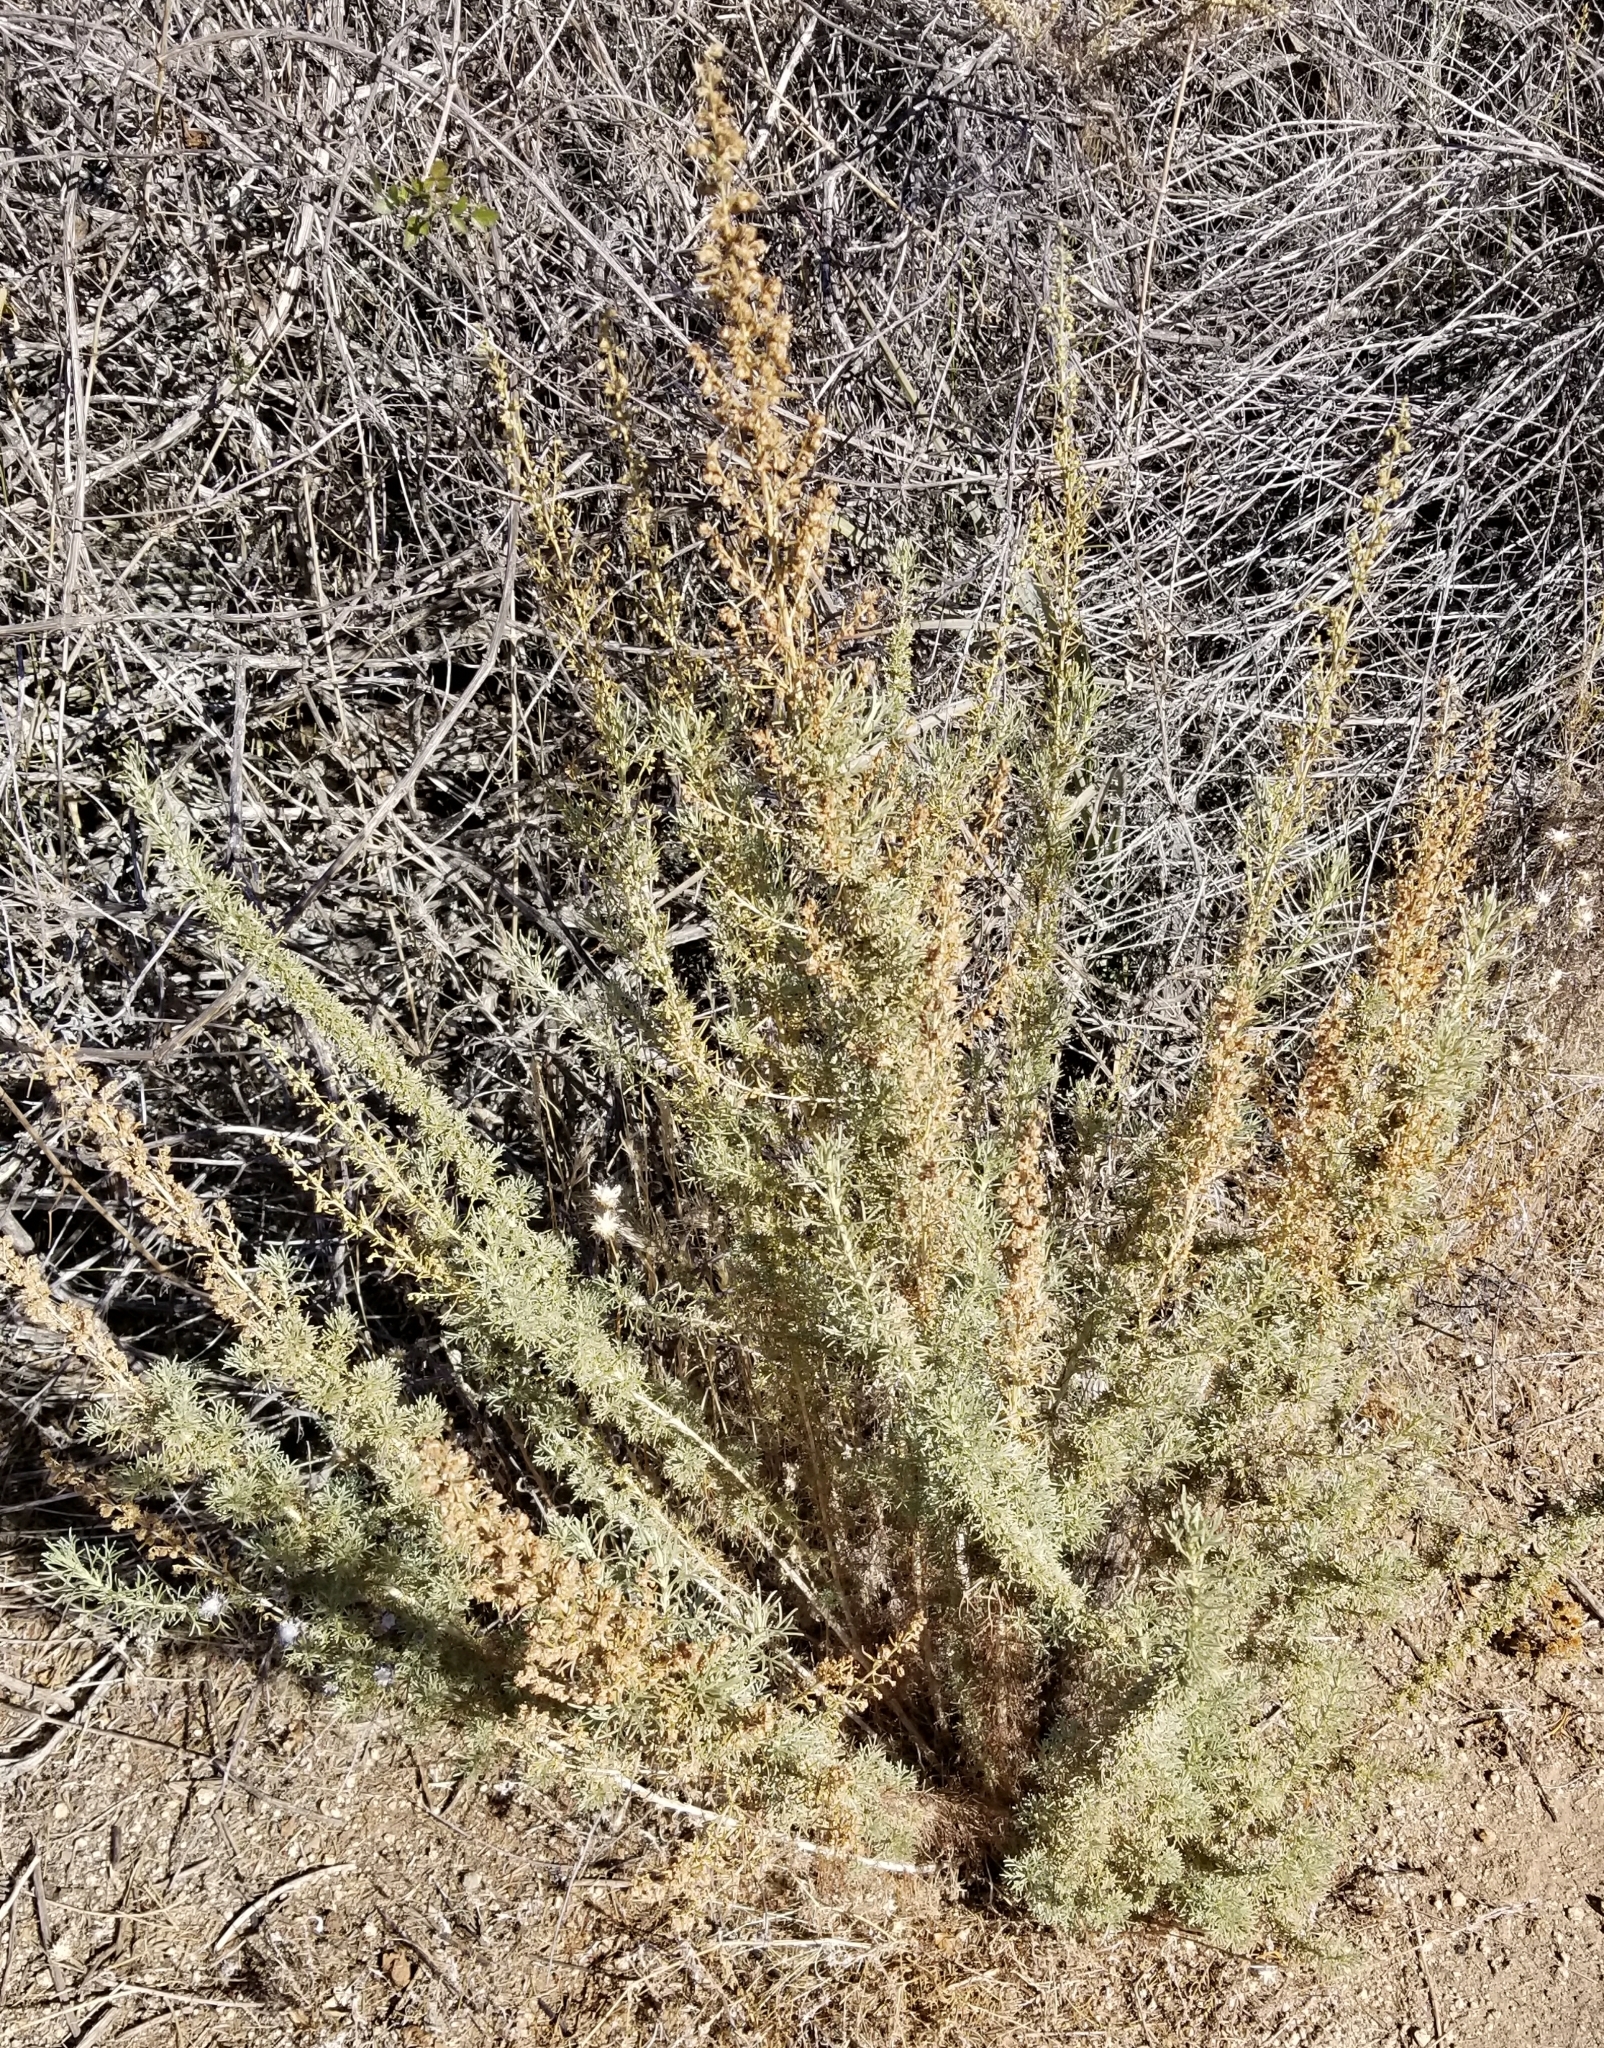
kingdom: Plantae
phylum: Tracheophyta
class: Magnoliopsida
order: Asterales
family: Asteraceae
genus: Artemisia
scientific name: Artemisia californica
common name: California sagebrush
